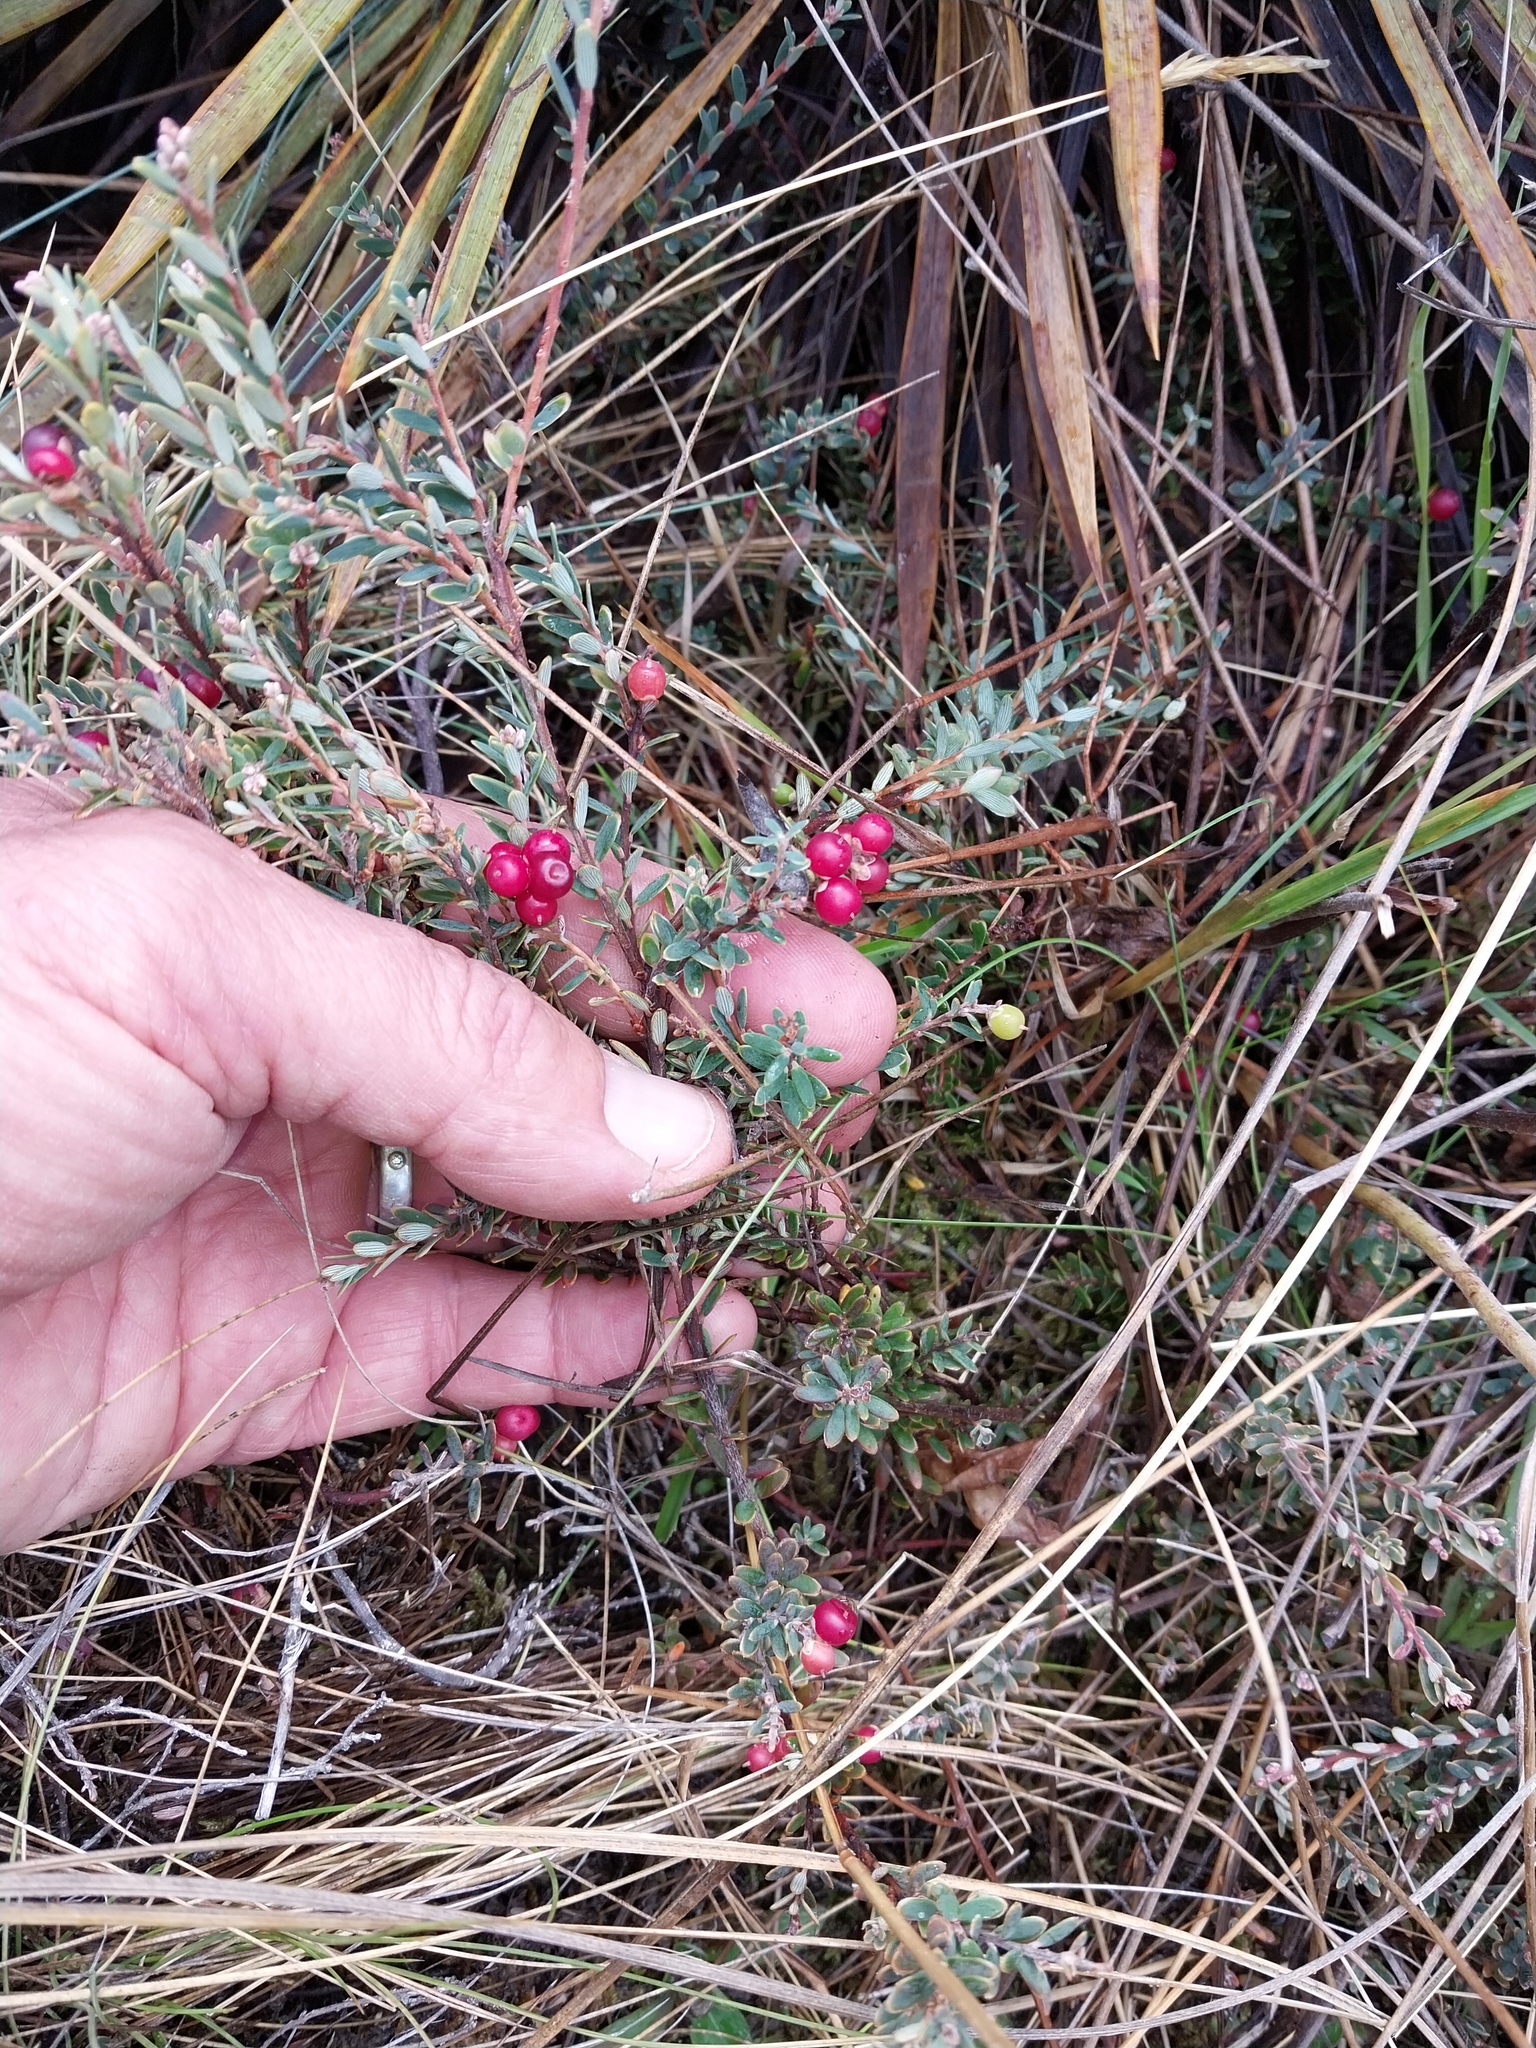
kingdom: Plantae
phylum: Tracheophyta
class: Magnoliopsida
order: Ericales
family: Ericaceae
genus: Acrothamnus
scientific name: Acrothamnus colensoi
